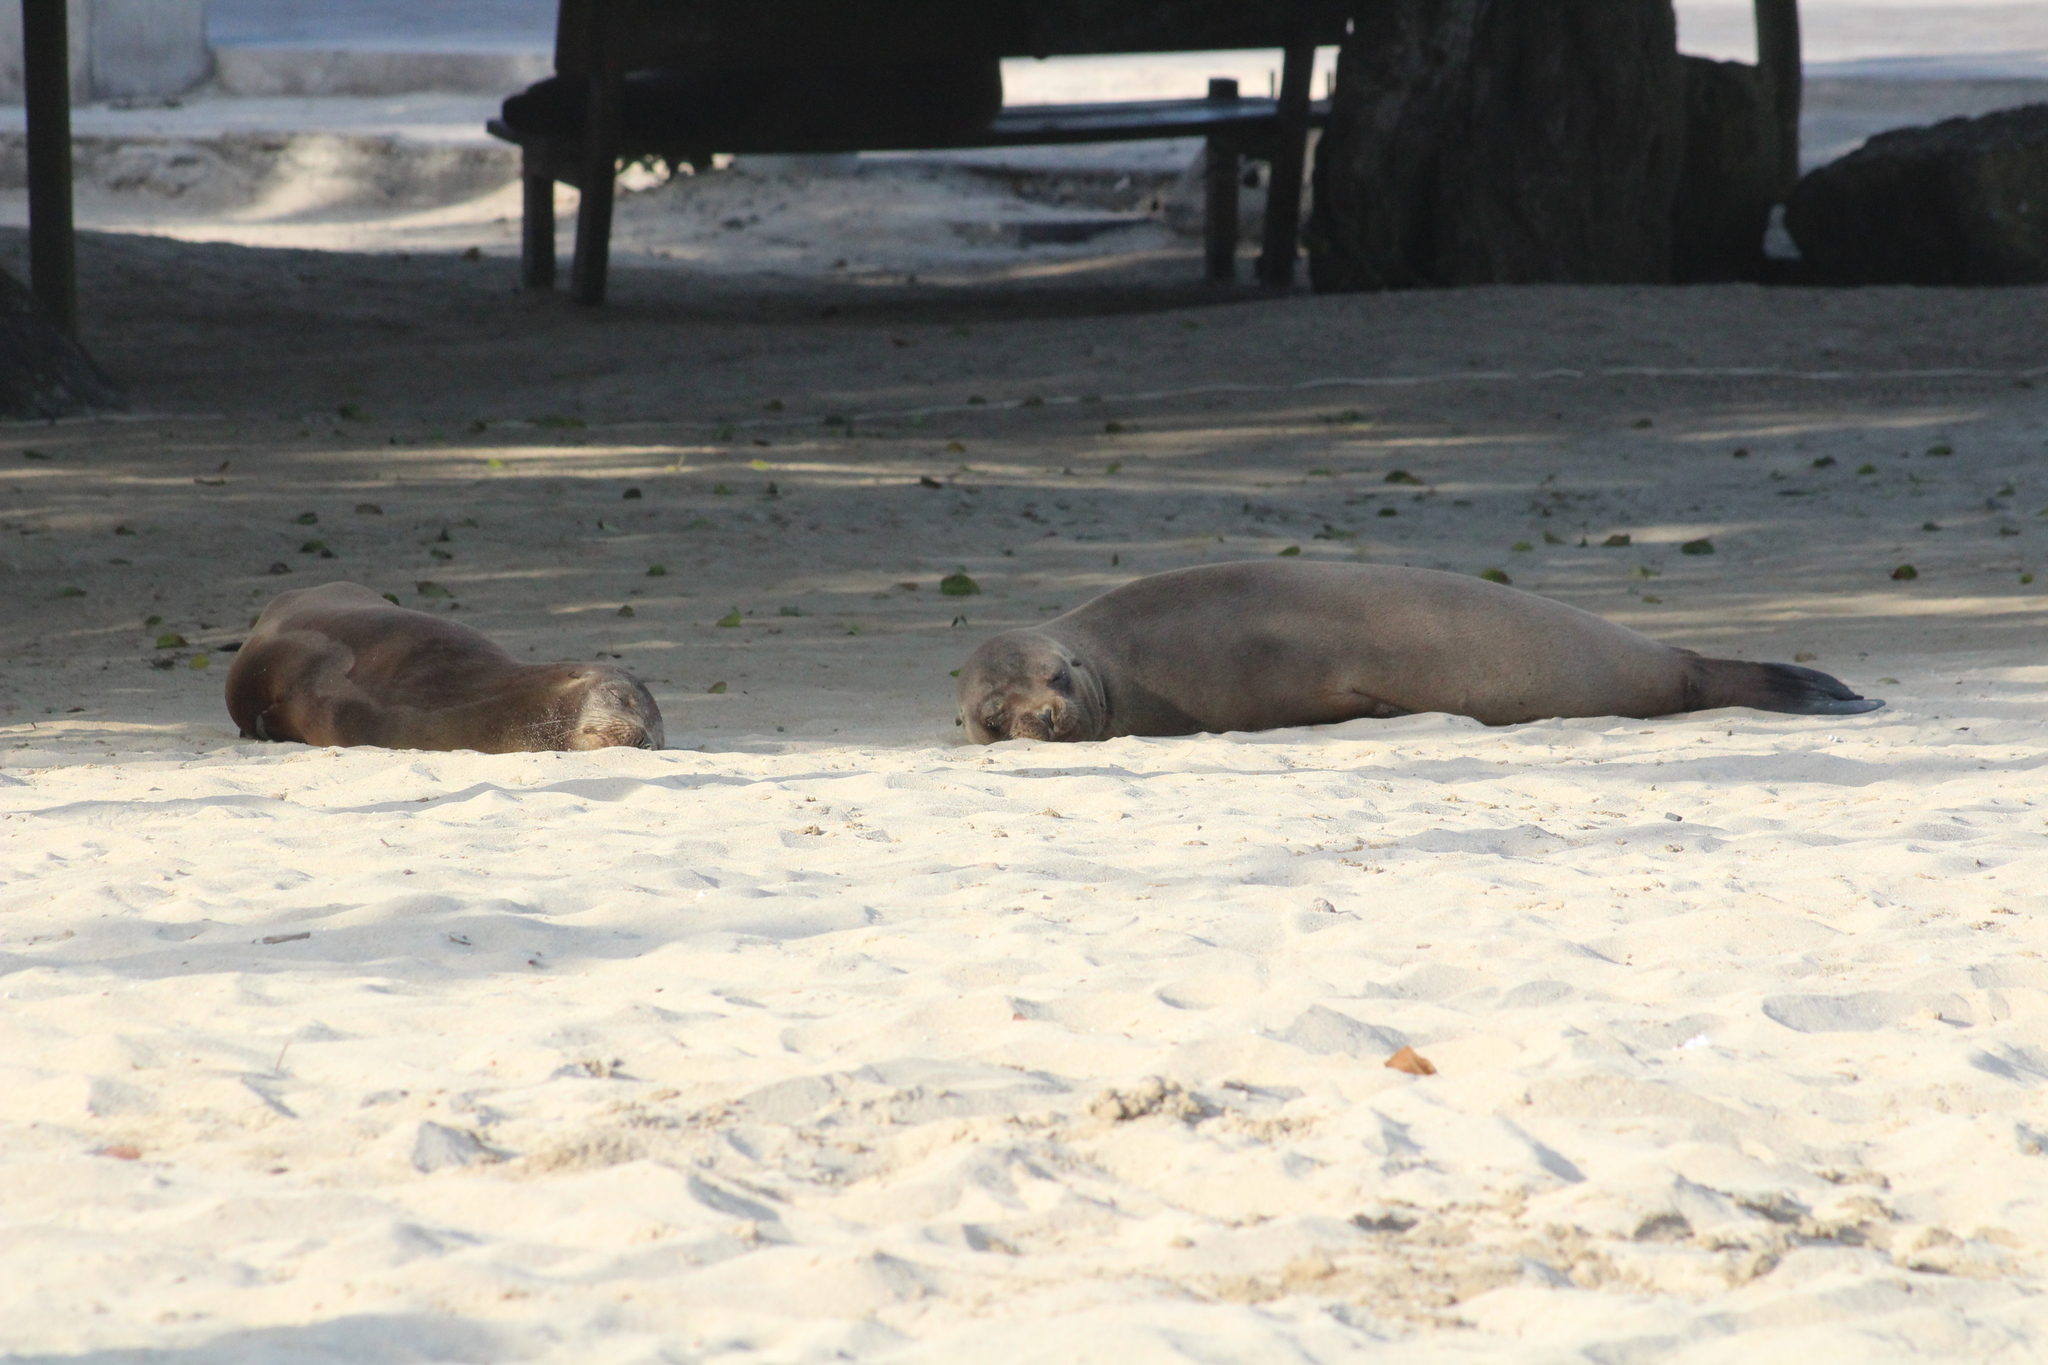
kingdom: Animalia
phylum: Chordata
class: Mammalia
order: Carnivora
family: Otariidae
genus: Zalophus
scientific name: Zalophus wollebaeki
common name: Galapagos sea lion
